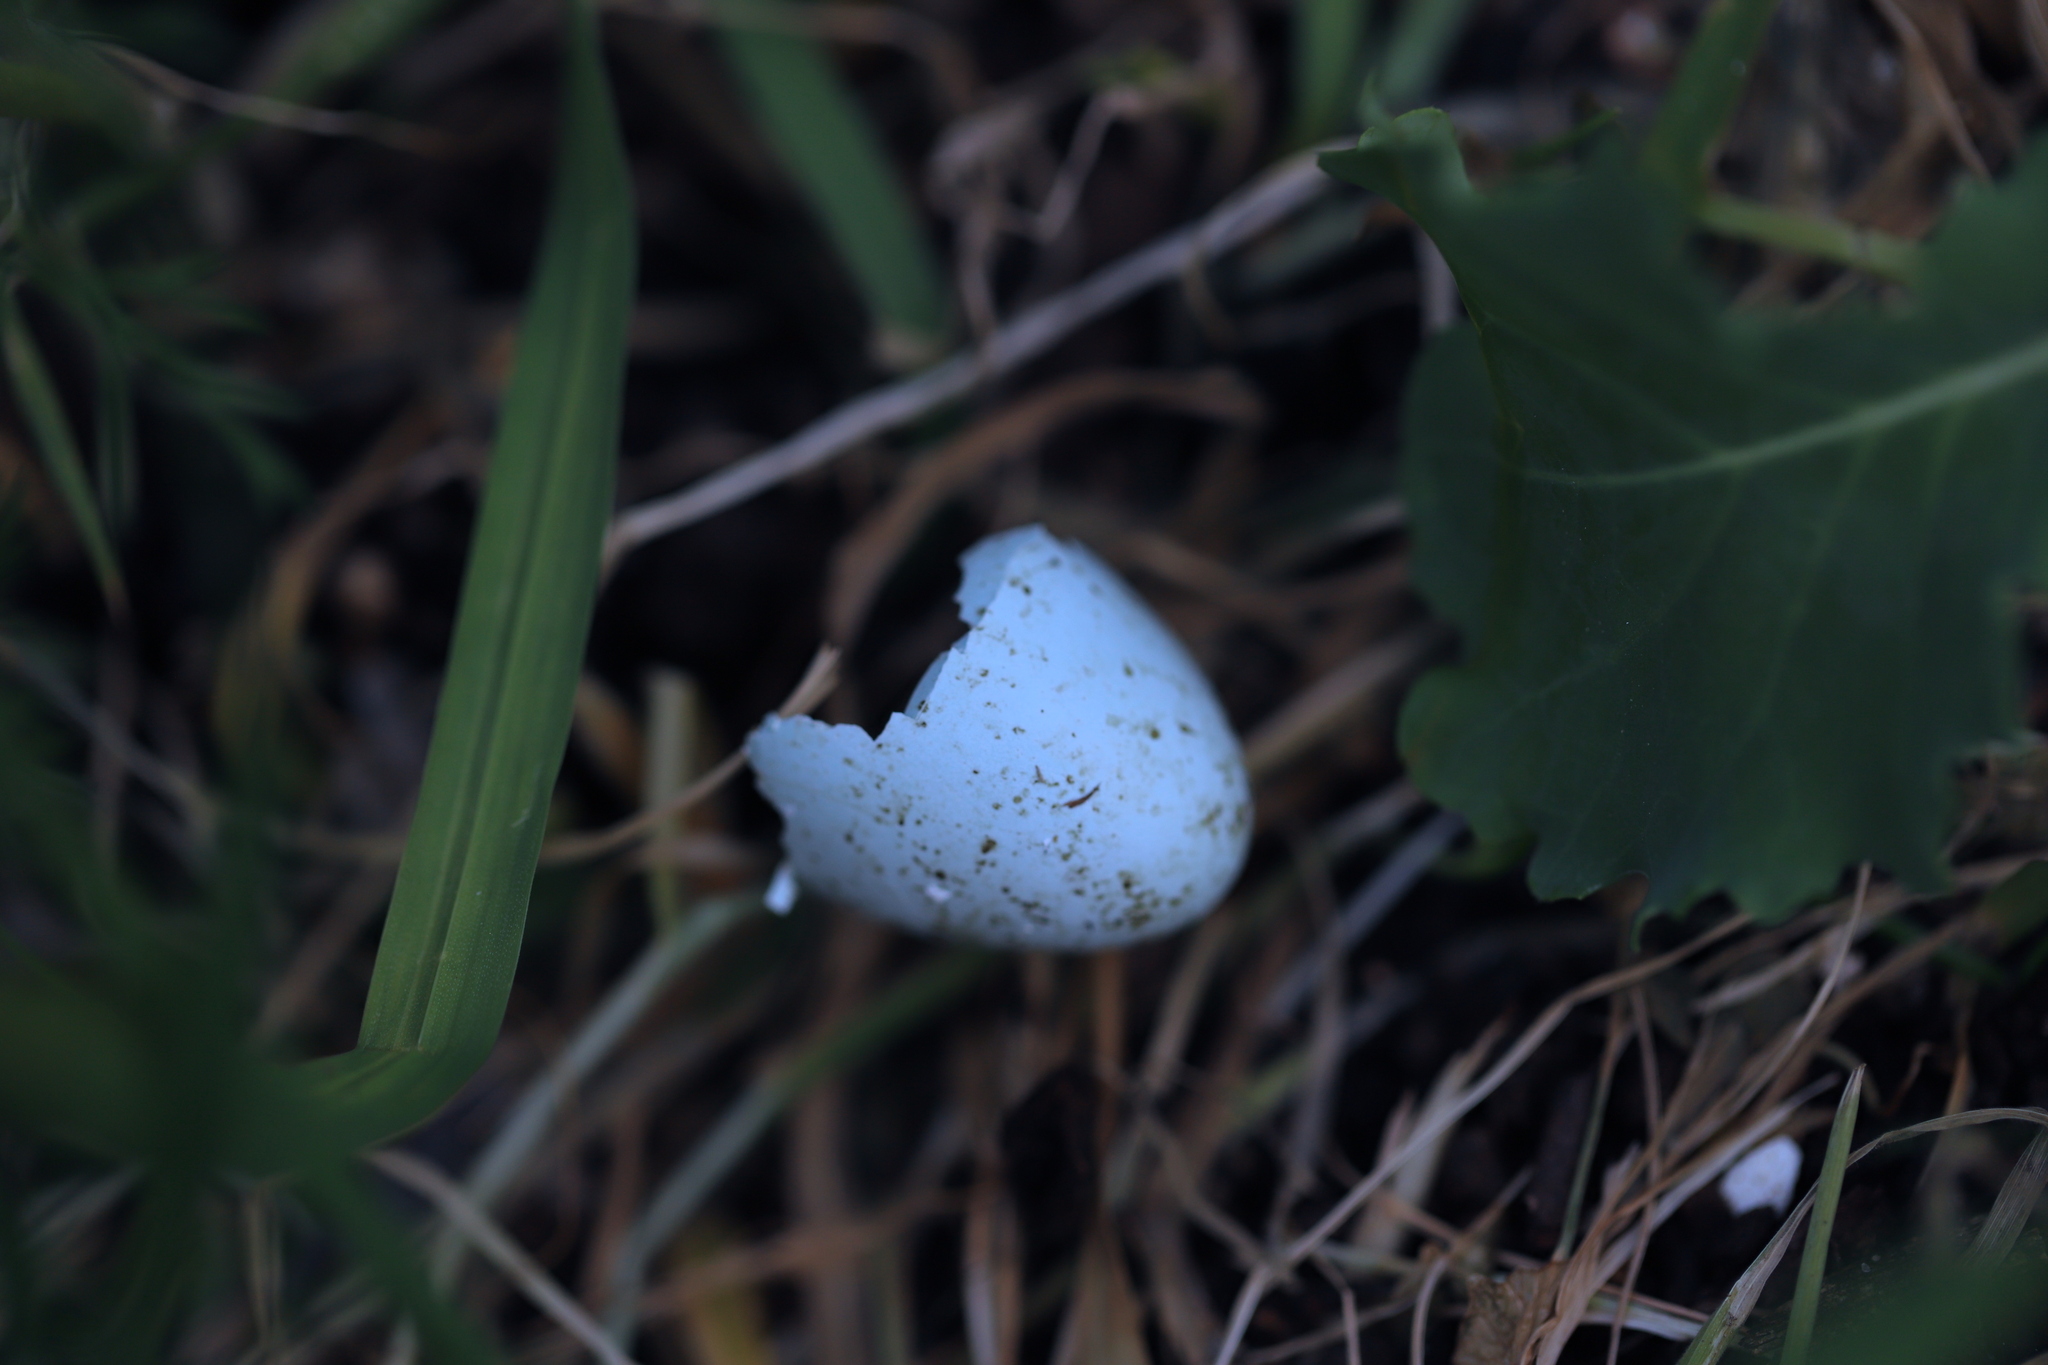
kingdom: Animalia
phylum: Chordata
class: Aves
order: Passeriformes
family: Turdidae
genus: Turdus
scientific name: Turdus migratorius
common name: American robin
